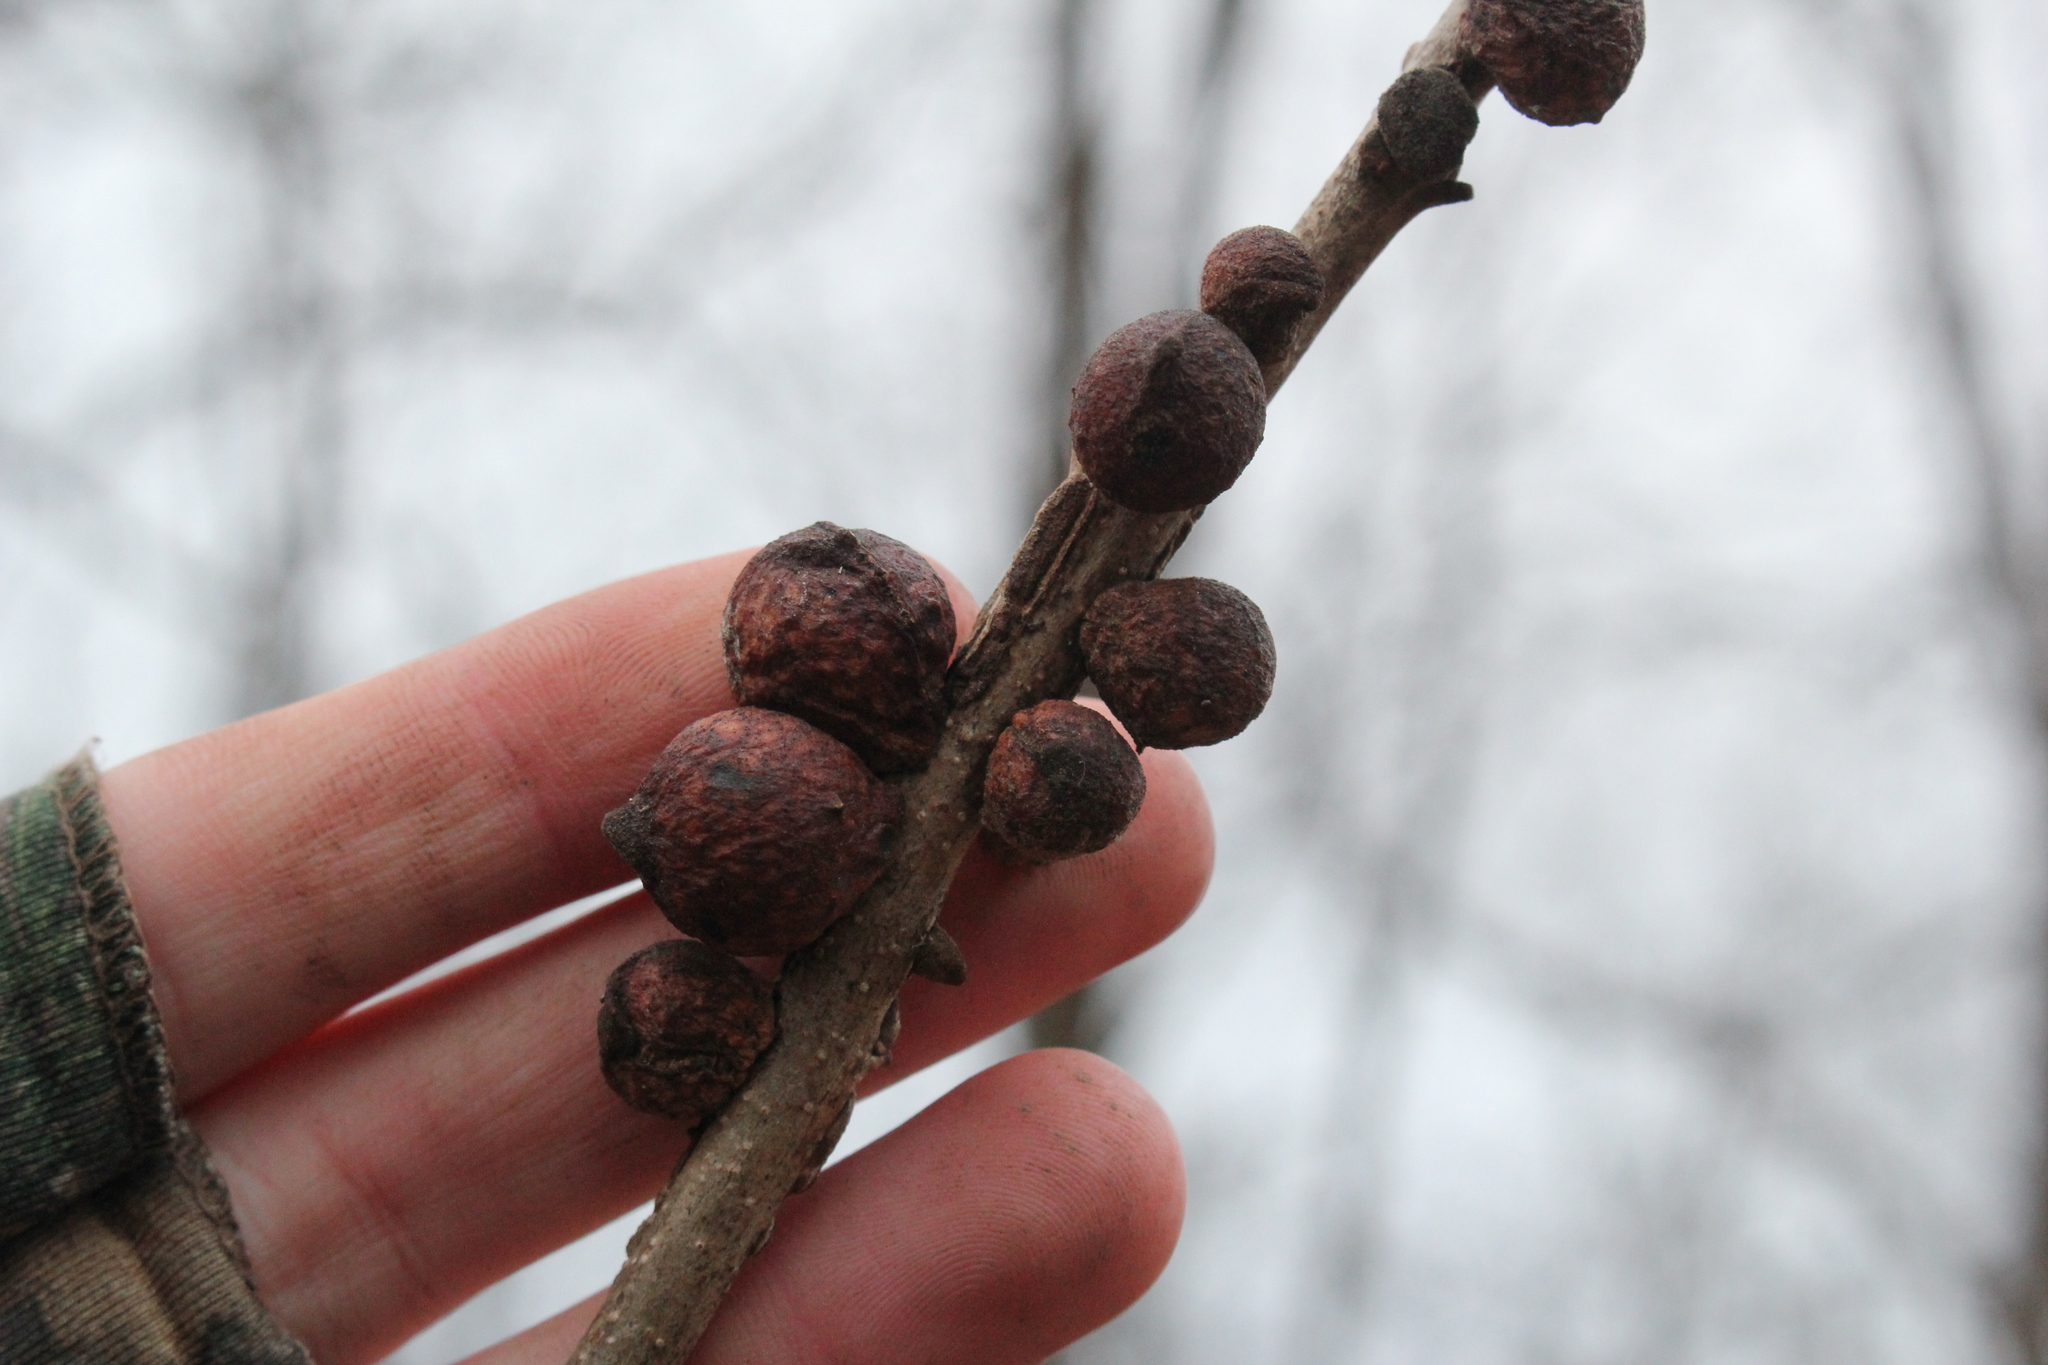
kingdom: Animalia
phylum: Arthropoda
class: Insecta
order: Hymenoptera
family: Cynipidae
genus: Disholcaspis
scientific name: Disholcaspis
